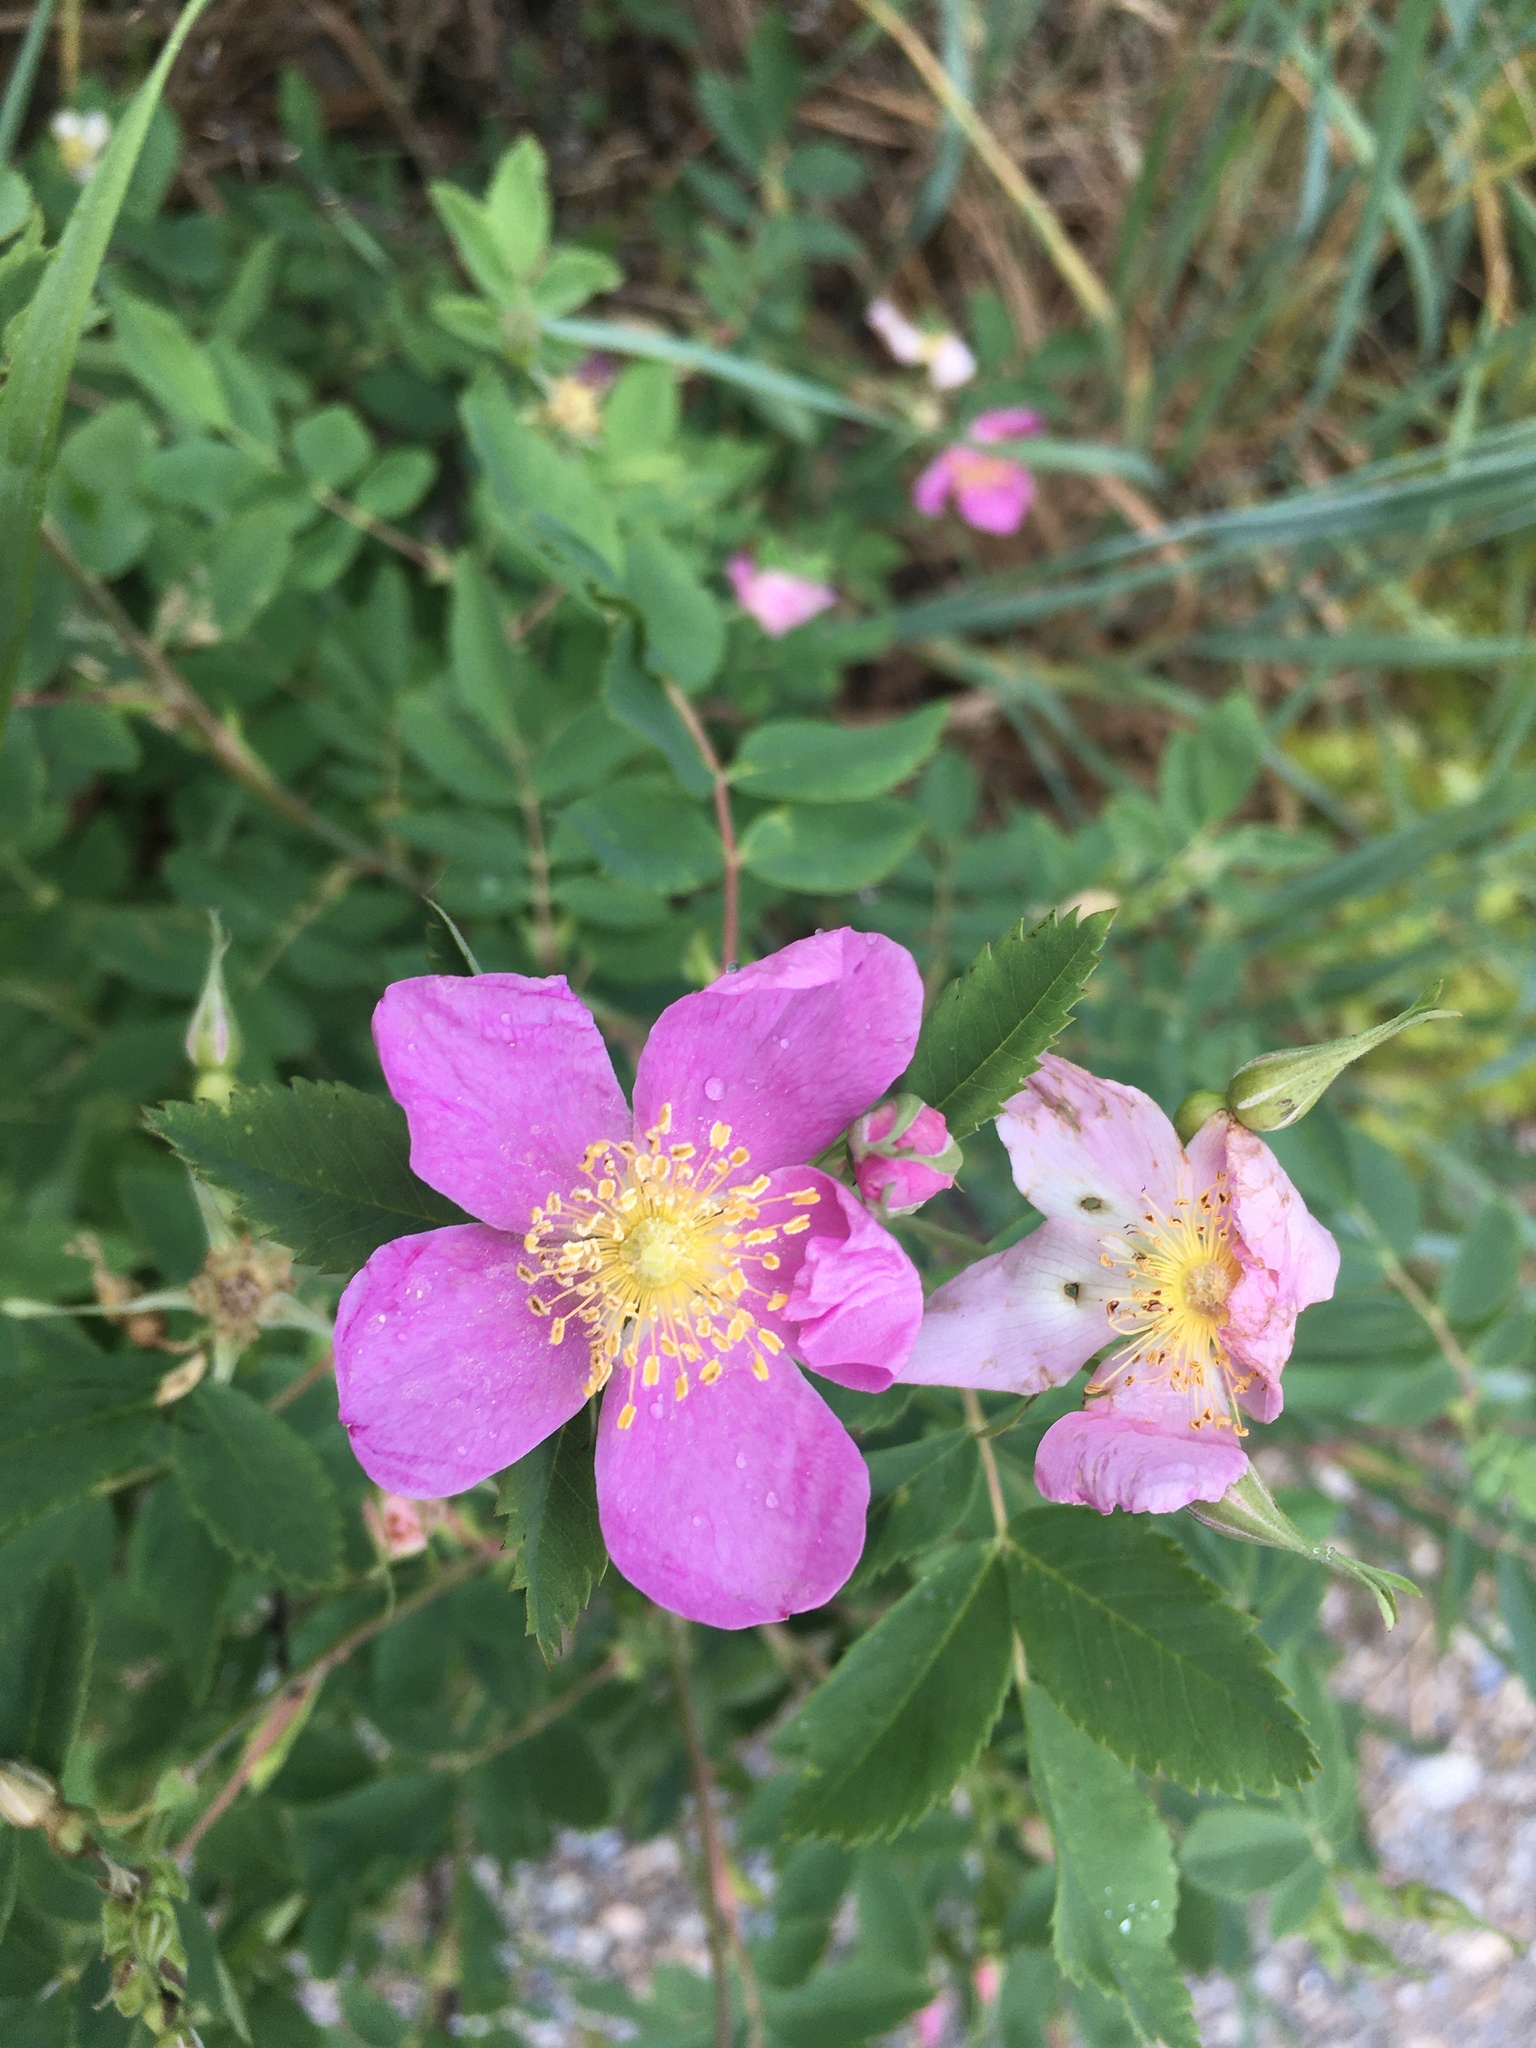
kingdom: Plantae
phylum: Tracheophyta
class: Magnoliopsida
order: Rosales
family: Rosaceae
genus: Rosa
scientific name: Rosa woodsii
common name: Woods's rose
